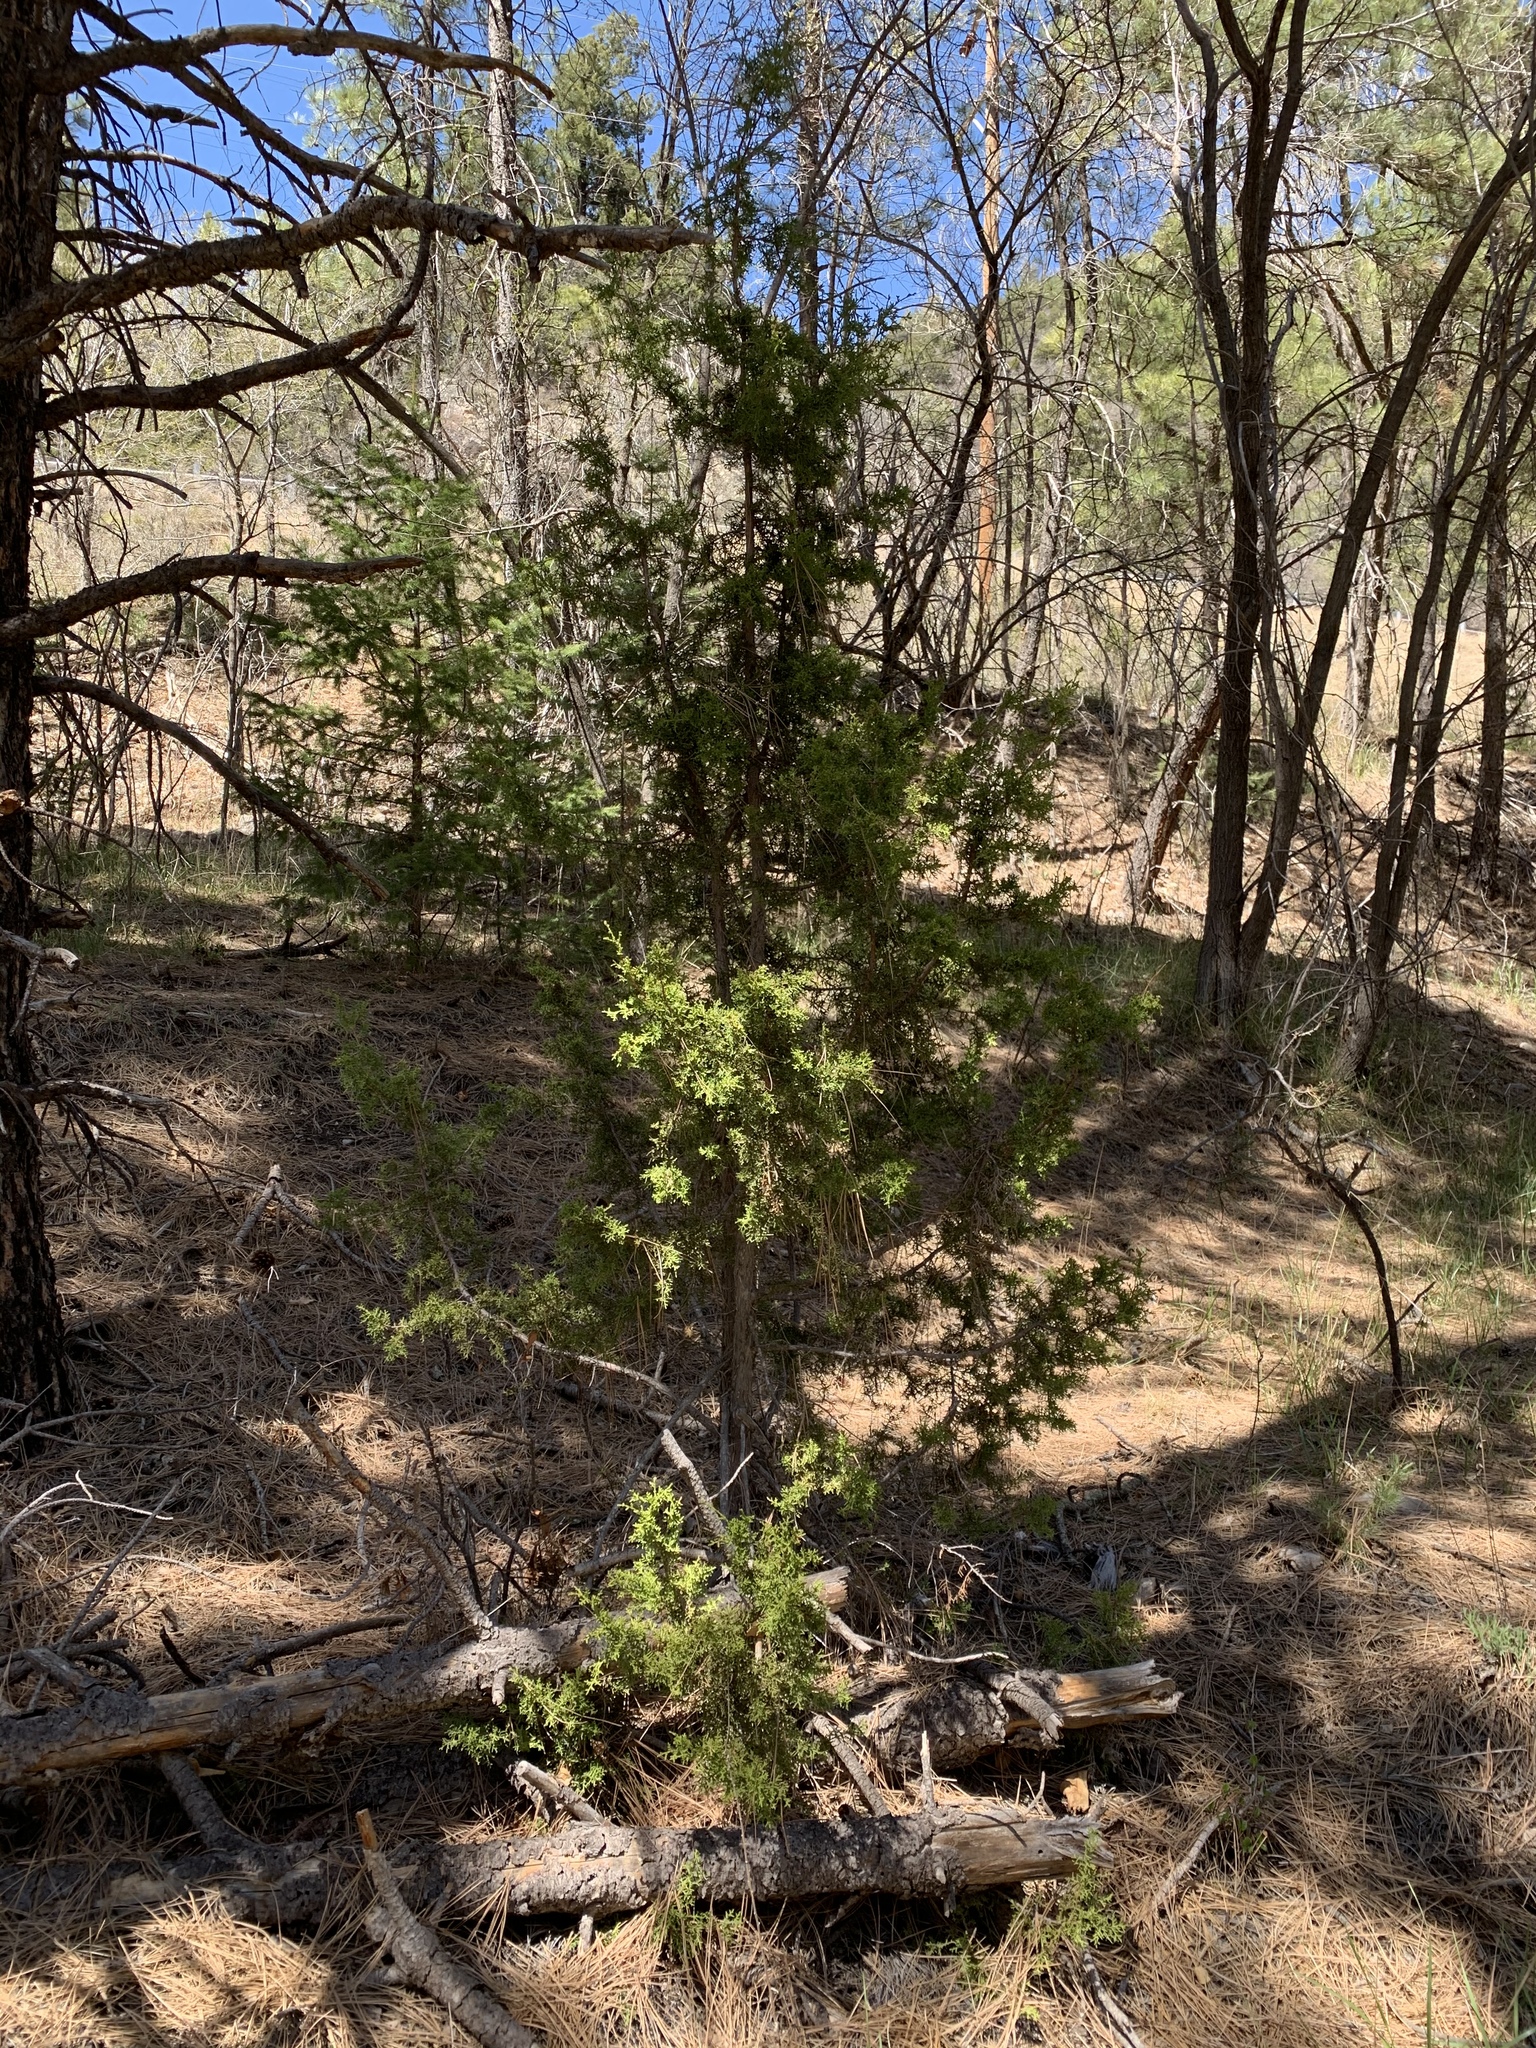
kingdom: Plantae
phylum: Tracheophyta
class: Pinopsida
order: Pinales
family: Cupressaceae
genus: Juniperus
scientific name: Juniperus monosperma
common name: One-seed juniper
